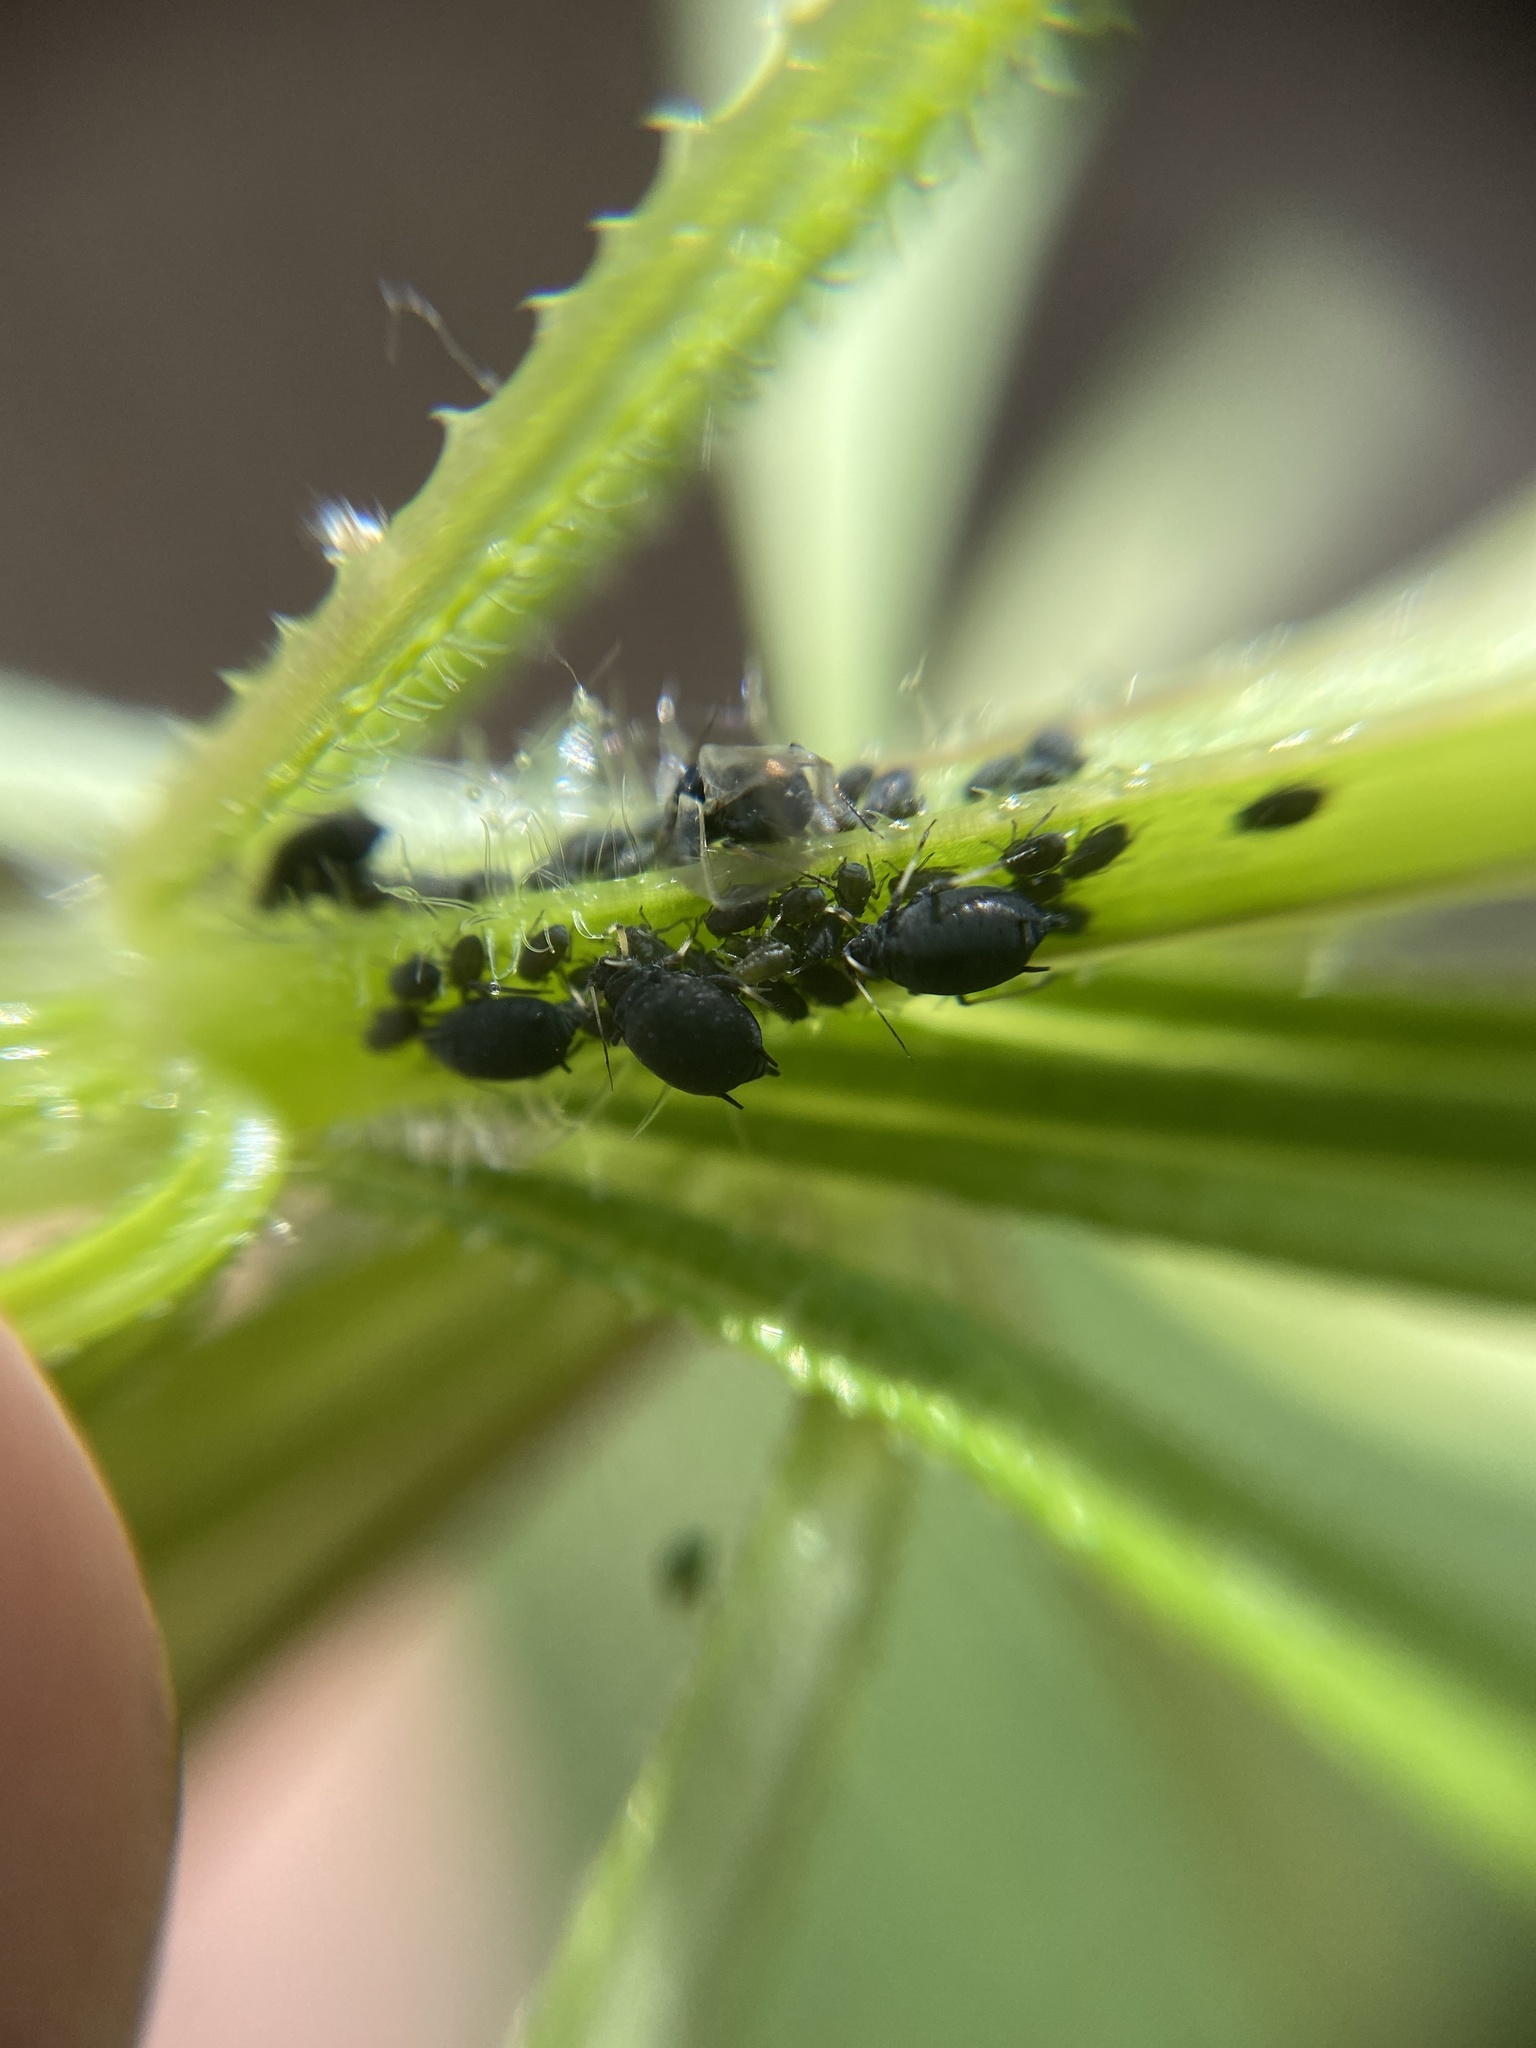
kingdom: Animalia
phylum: Arthropoda
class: Insecta
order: Hemiptera
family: Aphididae
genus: Aphis
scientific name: Aphis fabae
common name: Bean aphid
